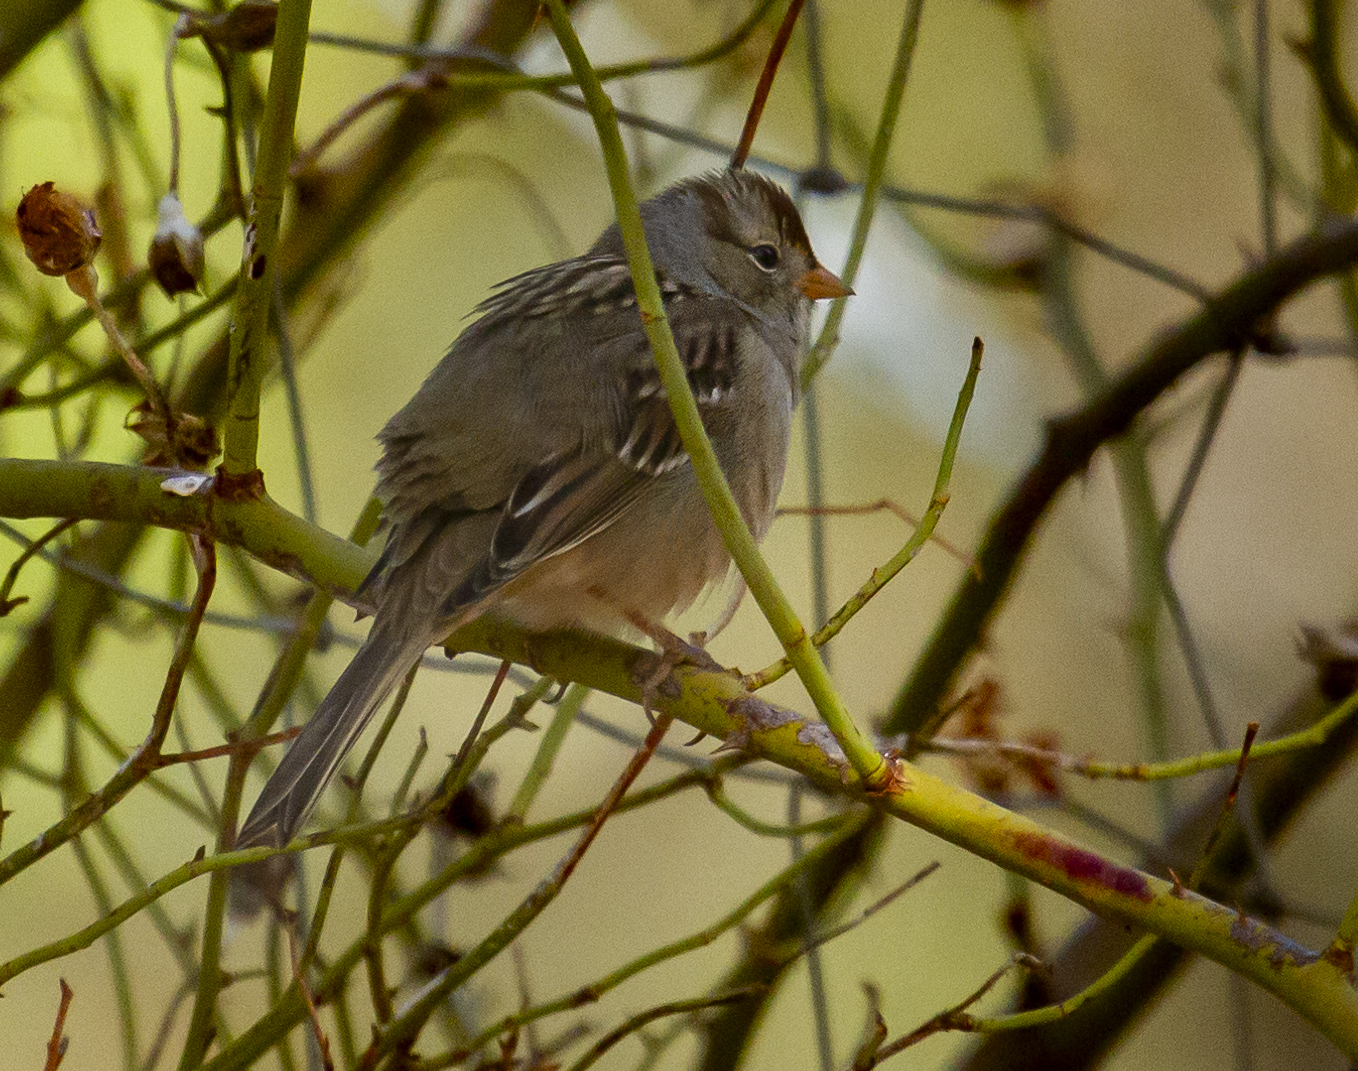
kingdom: Animalia
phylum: Chordata
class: Aves
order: Passeriformes
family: Passerellidae
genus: Zonotrichia
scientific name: Zonotrichia leucophrys
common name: White-crowned sparrow
